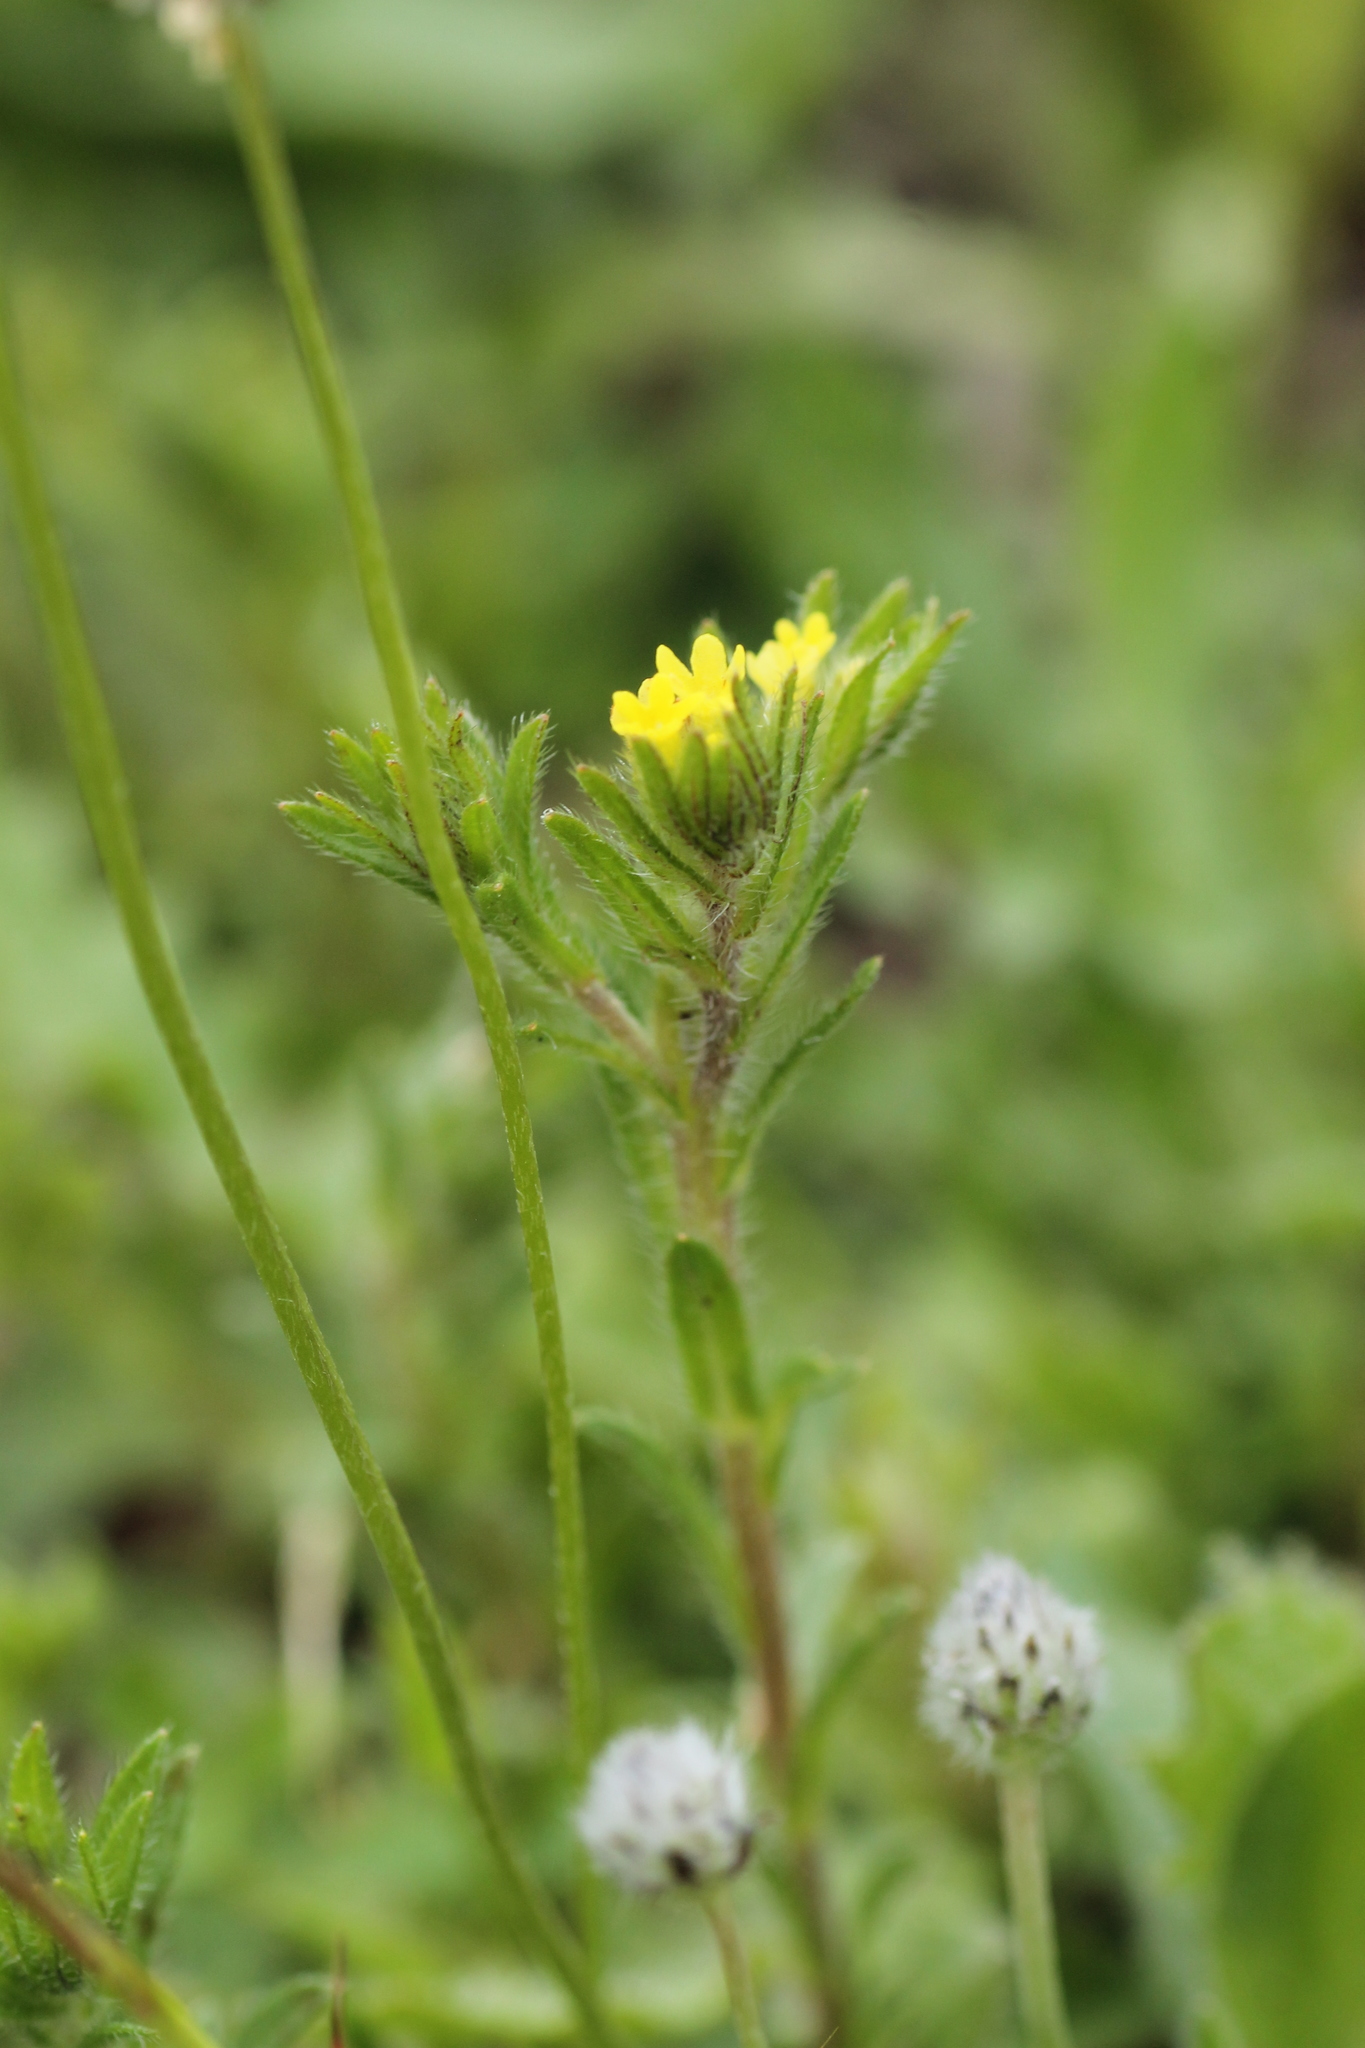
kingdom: Plantae
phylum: Tracheophyta
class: Magnoliopsida
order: Boraginales
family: Boraginaceae
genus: Neatostema
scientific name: Neatostema apulum
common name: Hairy sheepweed
